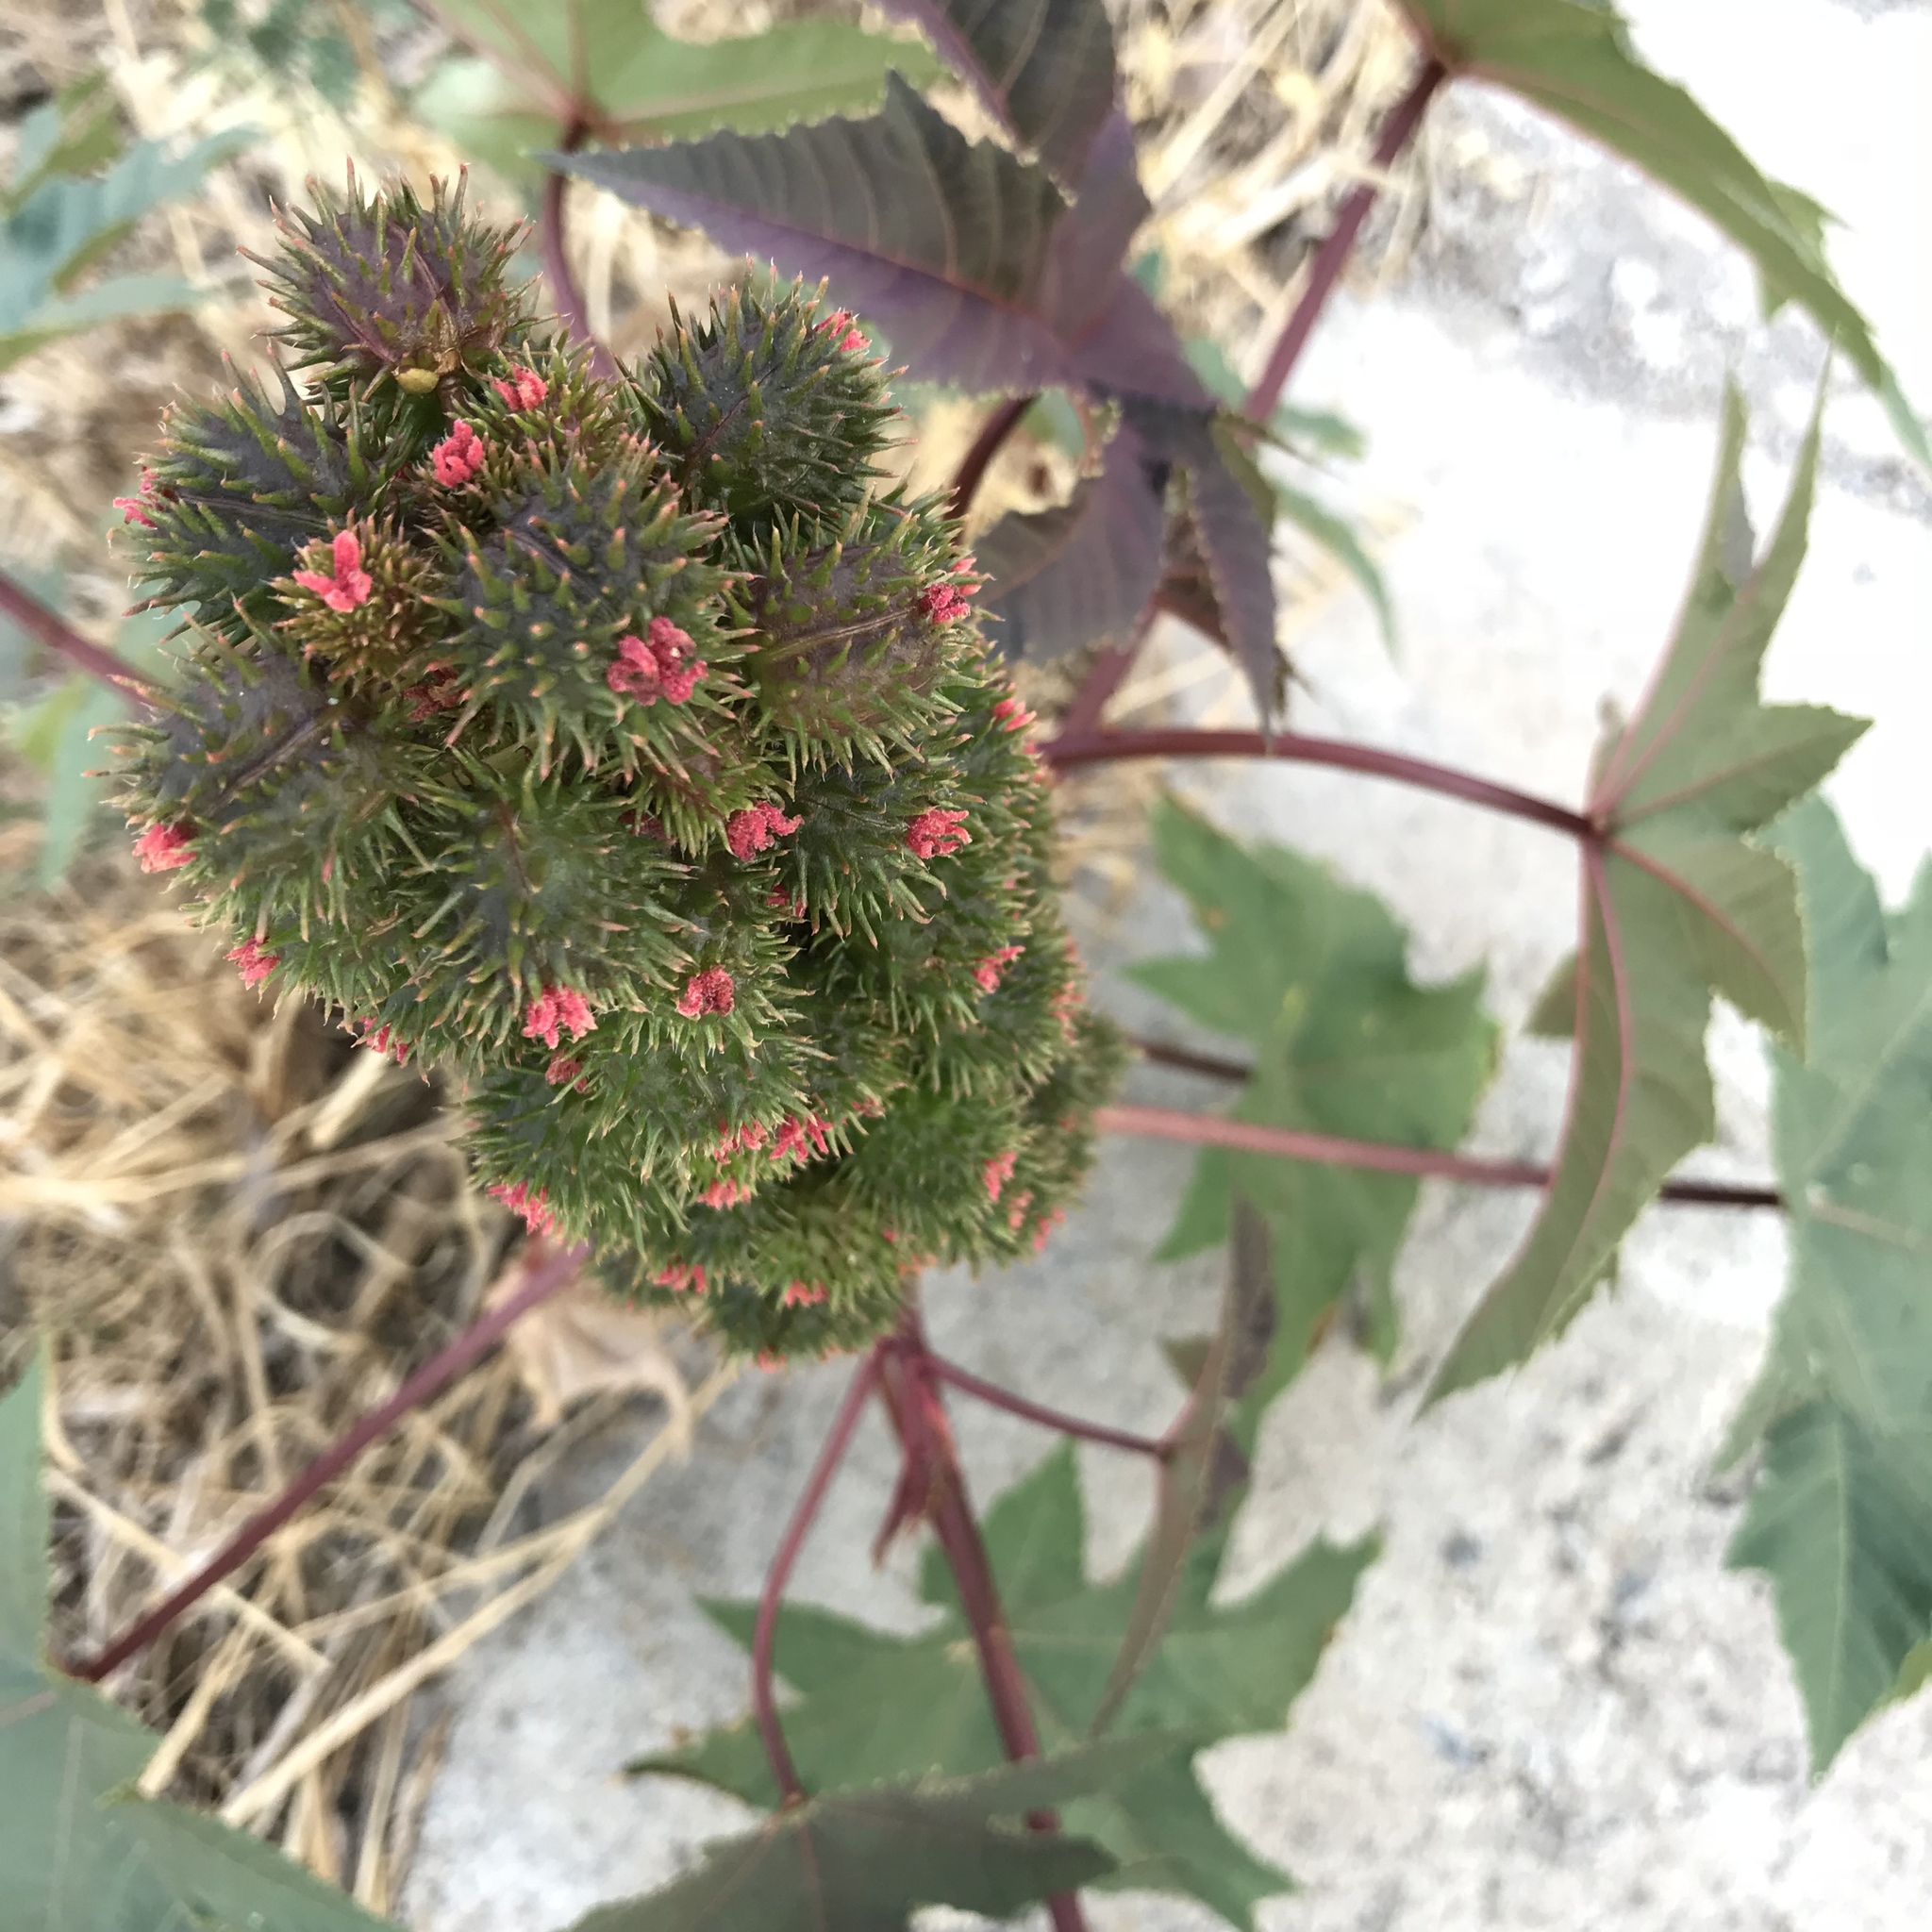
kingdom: Plantae
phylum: Tracheophyta
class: Magnoliopsida
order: Malpighiales
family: Euphorbiaceae
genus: Ricinus
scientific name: Ricinus communis
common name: Castor-oil-plant
